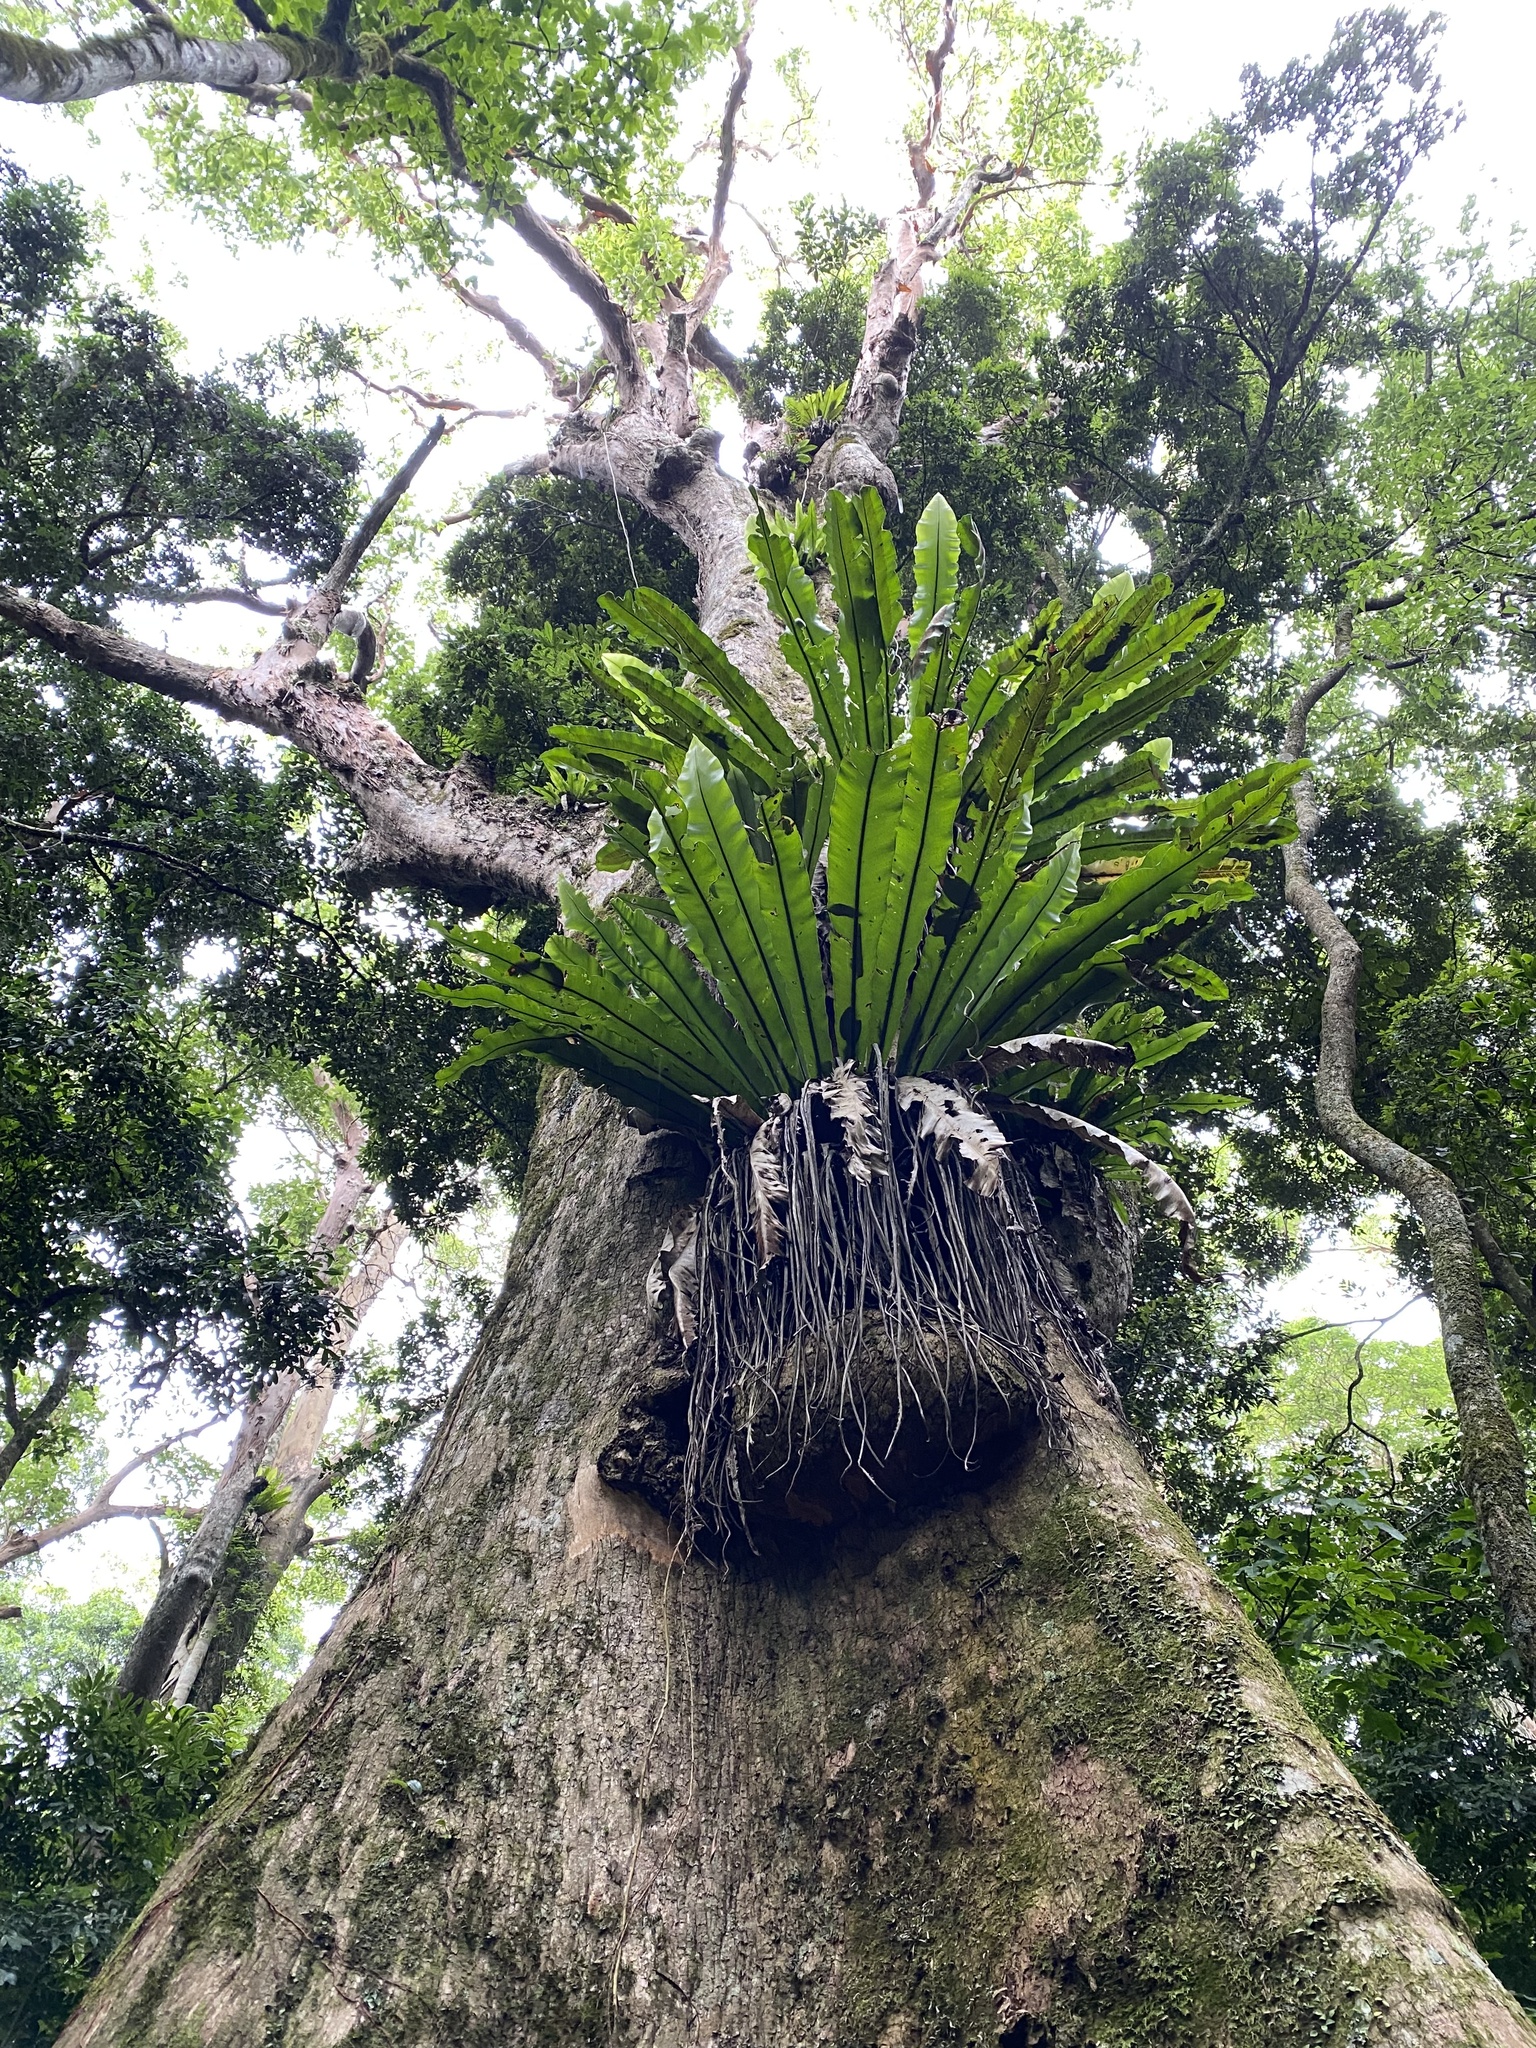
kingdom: Plantae
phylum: Tracheophyta
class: Polypodiopsida
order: Polypodiales
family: Aspleniaceae
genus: Asplenium
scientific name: Asplenium australasicum
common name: Bird's-nest fern
